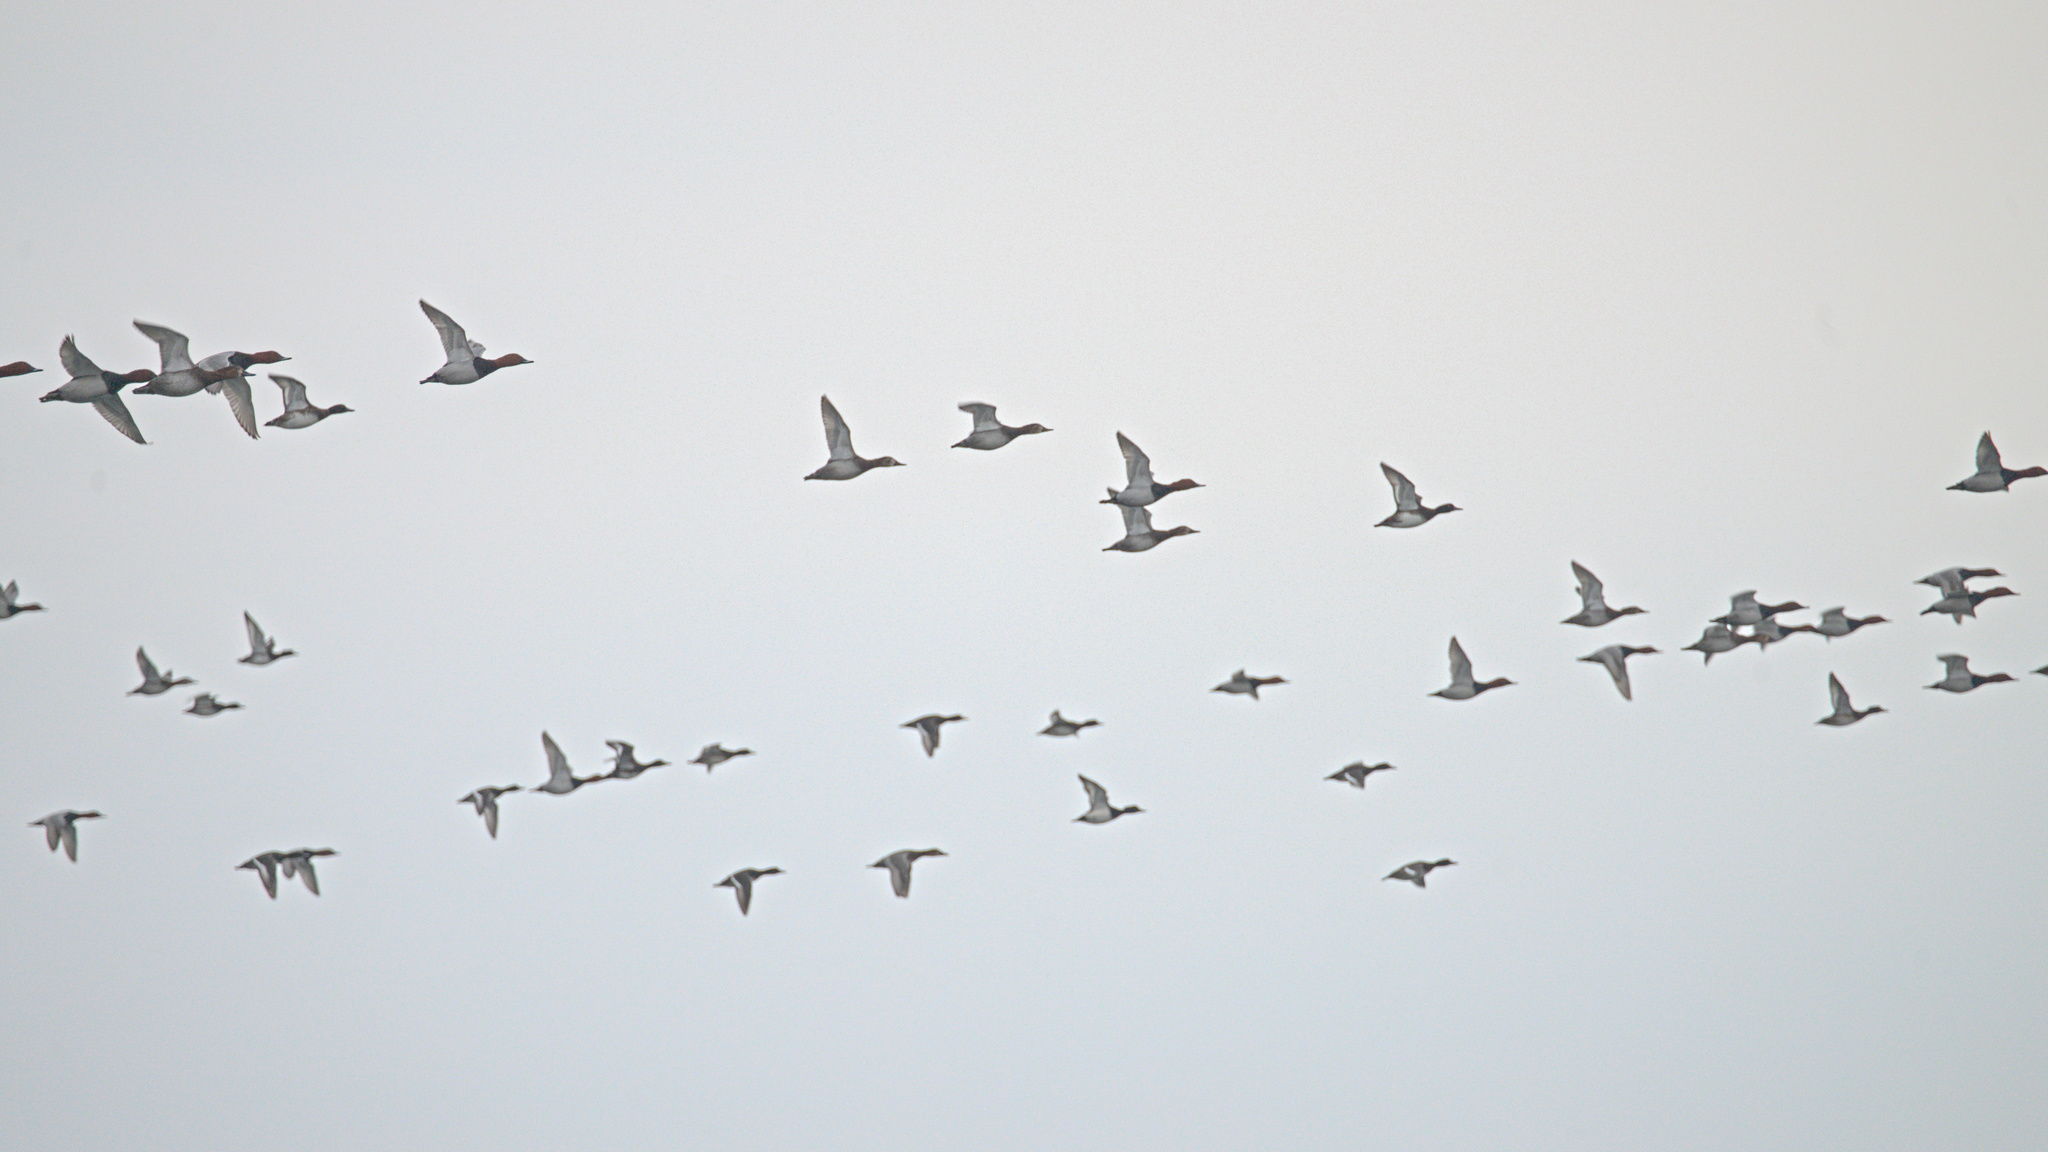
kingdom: Animalia
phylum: Chordata
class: Aves
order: Anseriformes
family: Anatidae
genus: Aythya
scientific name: Aythya ferina
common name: Common pochard
